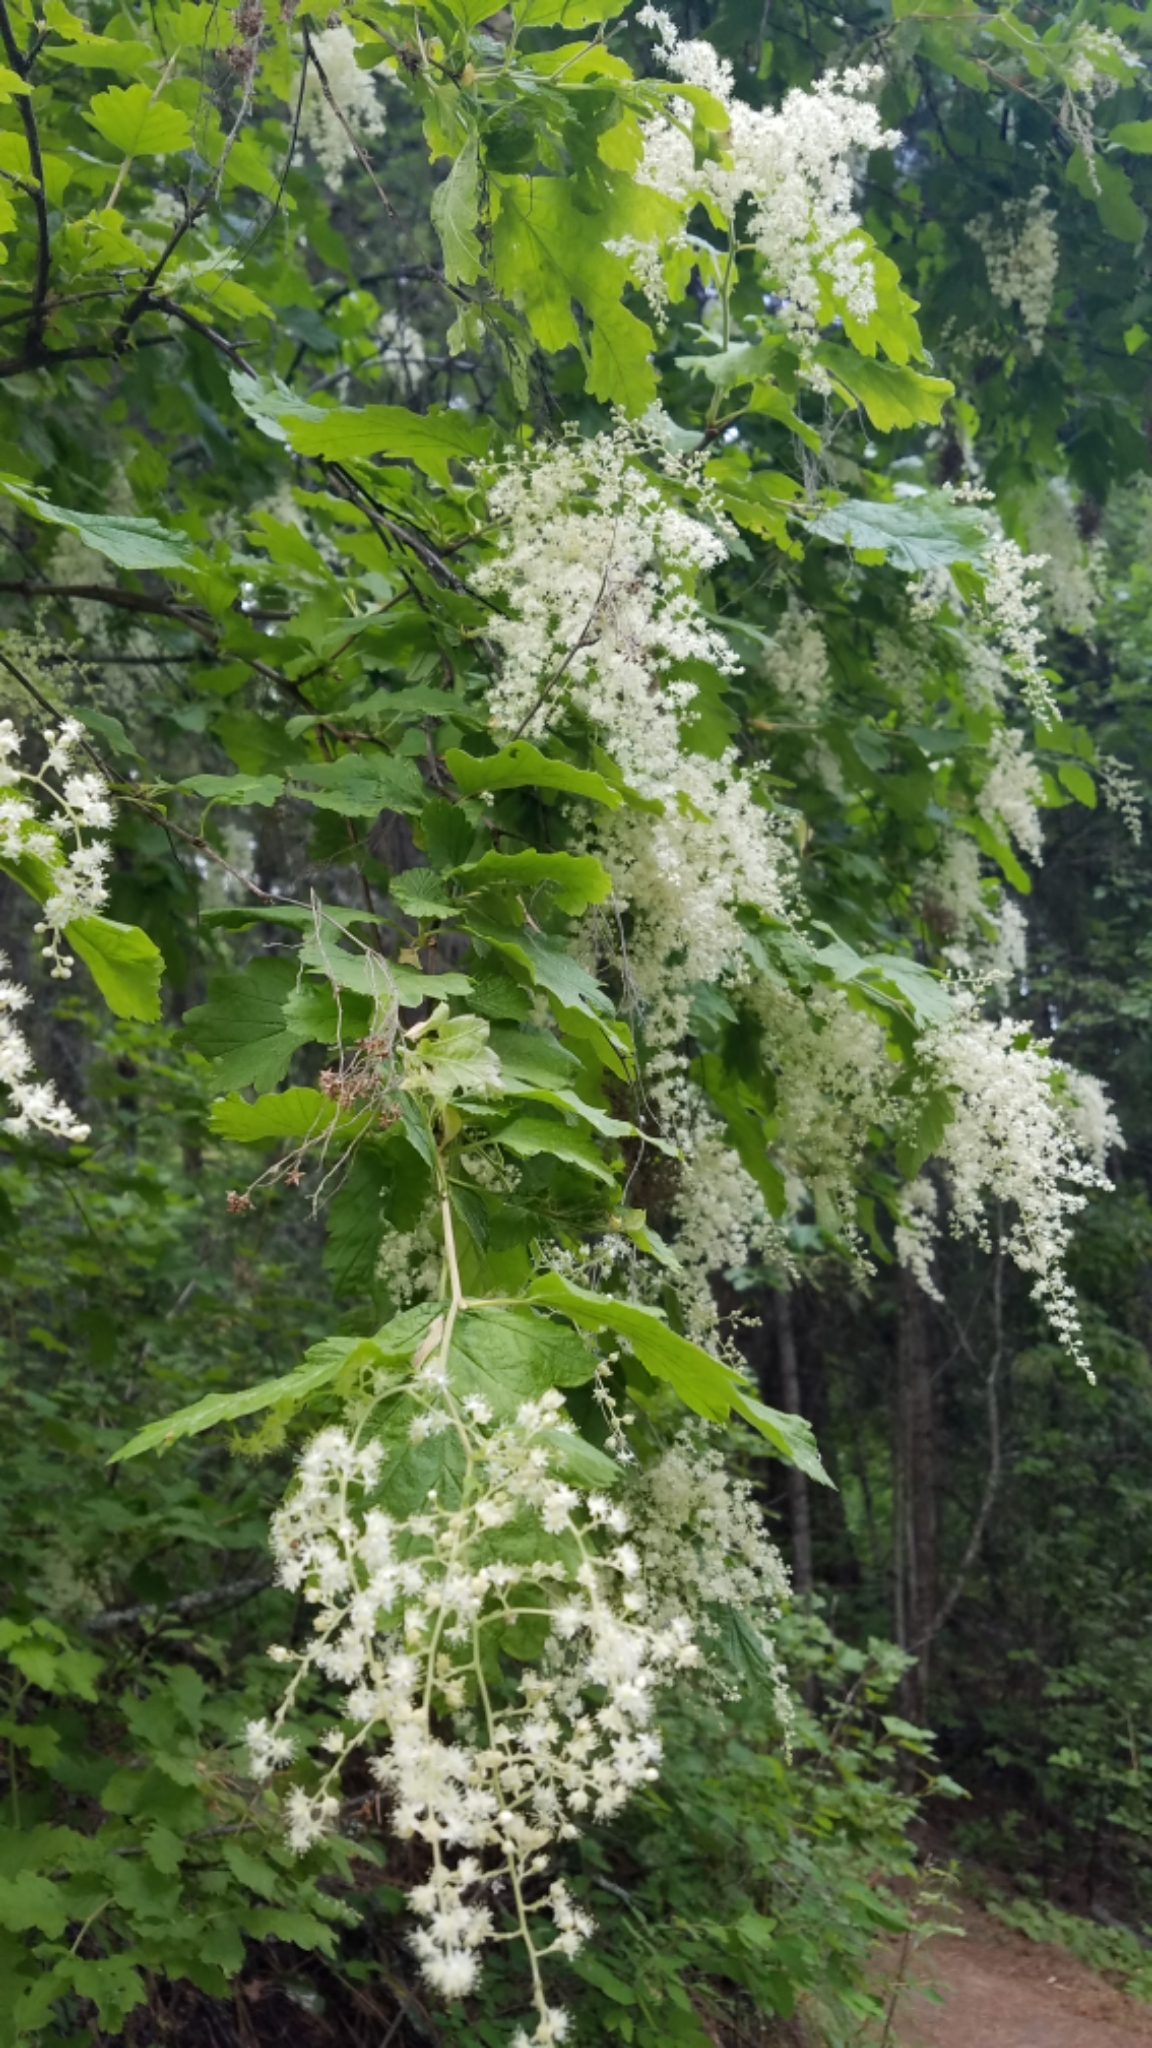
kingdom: Plantae
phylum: Tracheophyta
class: Magnoliopsida
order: Rosales
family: Rosaceae
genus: Holodiscus
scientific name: Holodiscus discolor
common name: Oceanspray
